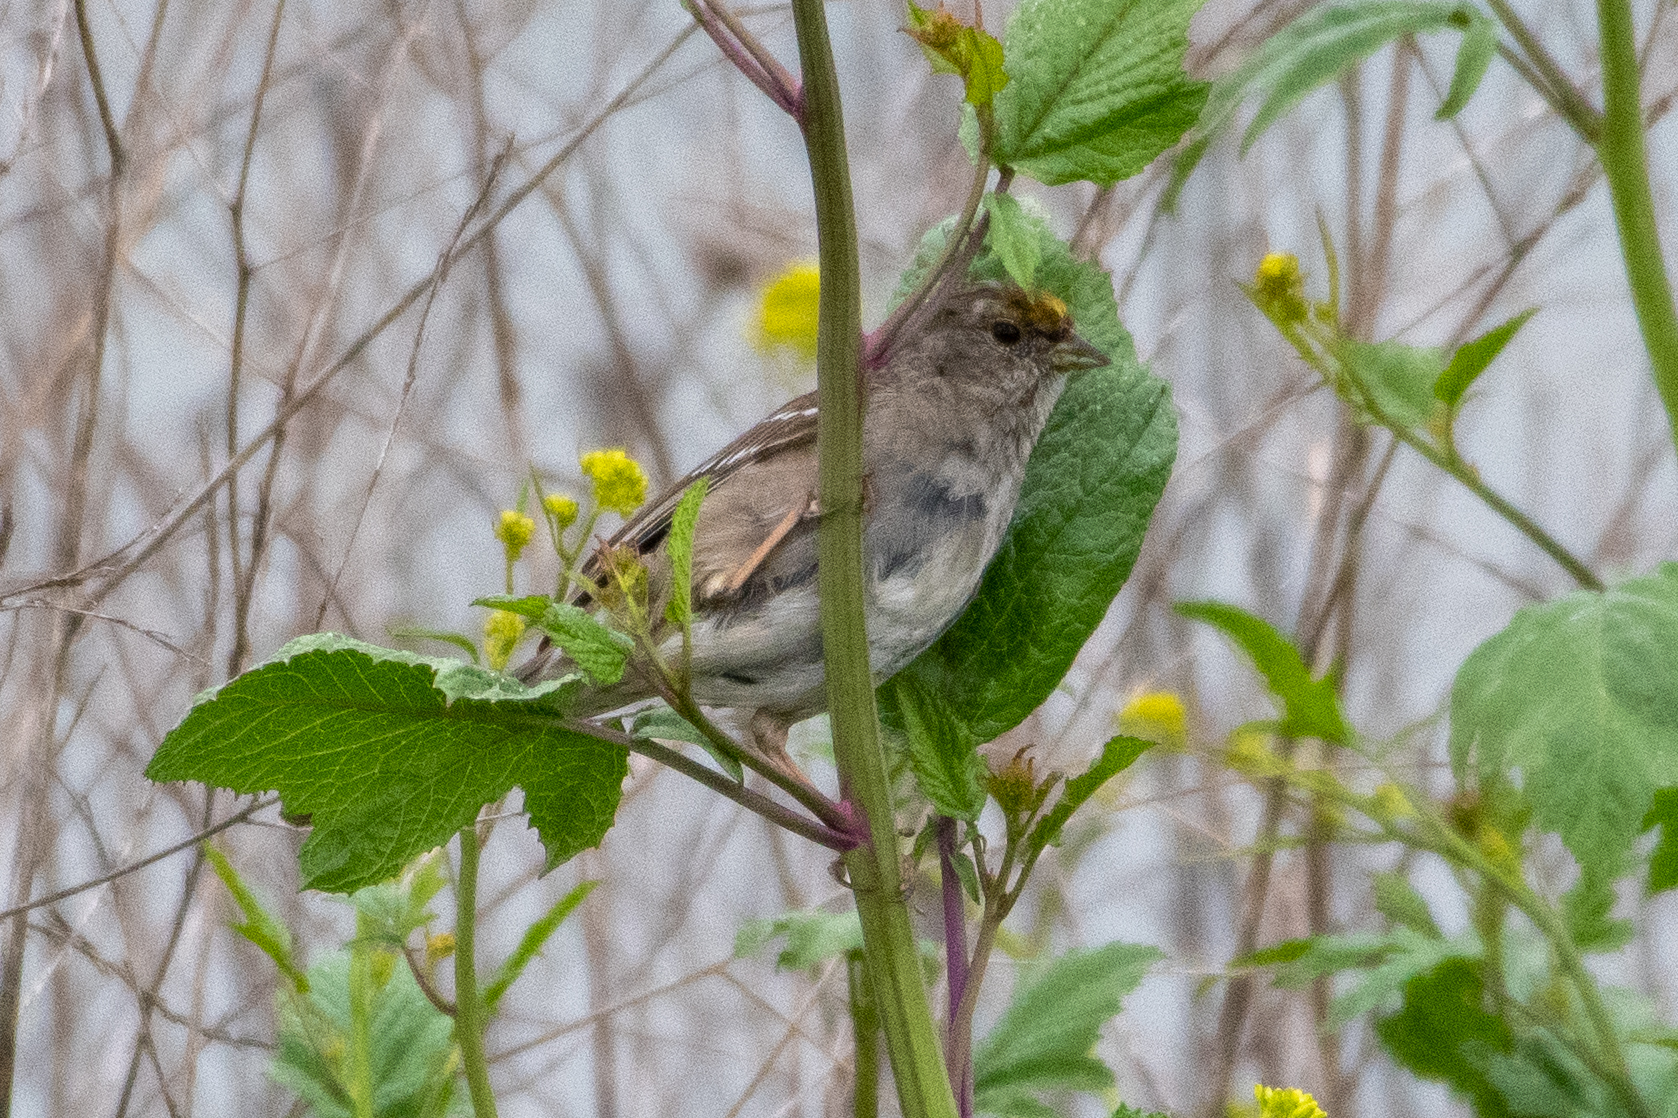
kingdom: Animalia
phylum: Chordata
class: Aves
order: Passeriformes
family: Passerellidae
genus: Zonotrichia
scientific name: Zonotrichia atricapilla
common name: Golden-crowned sparrow
